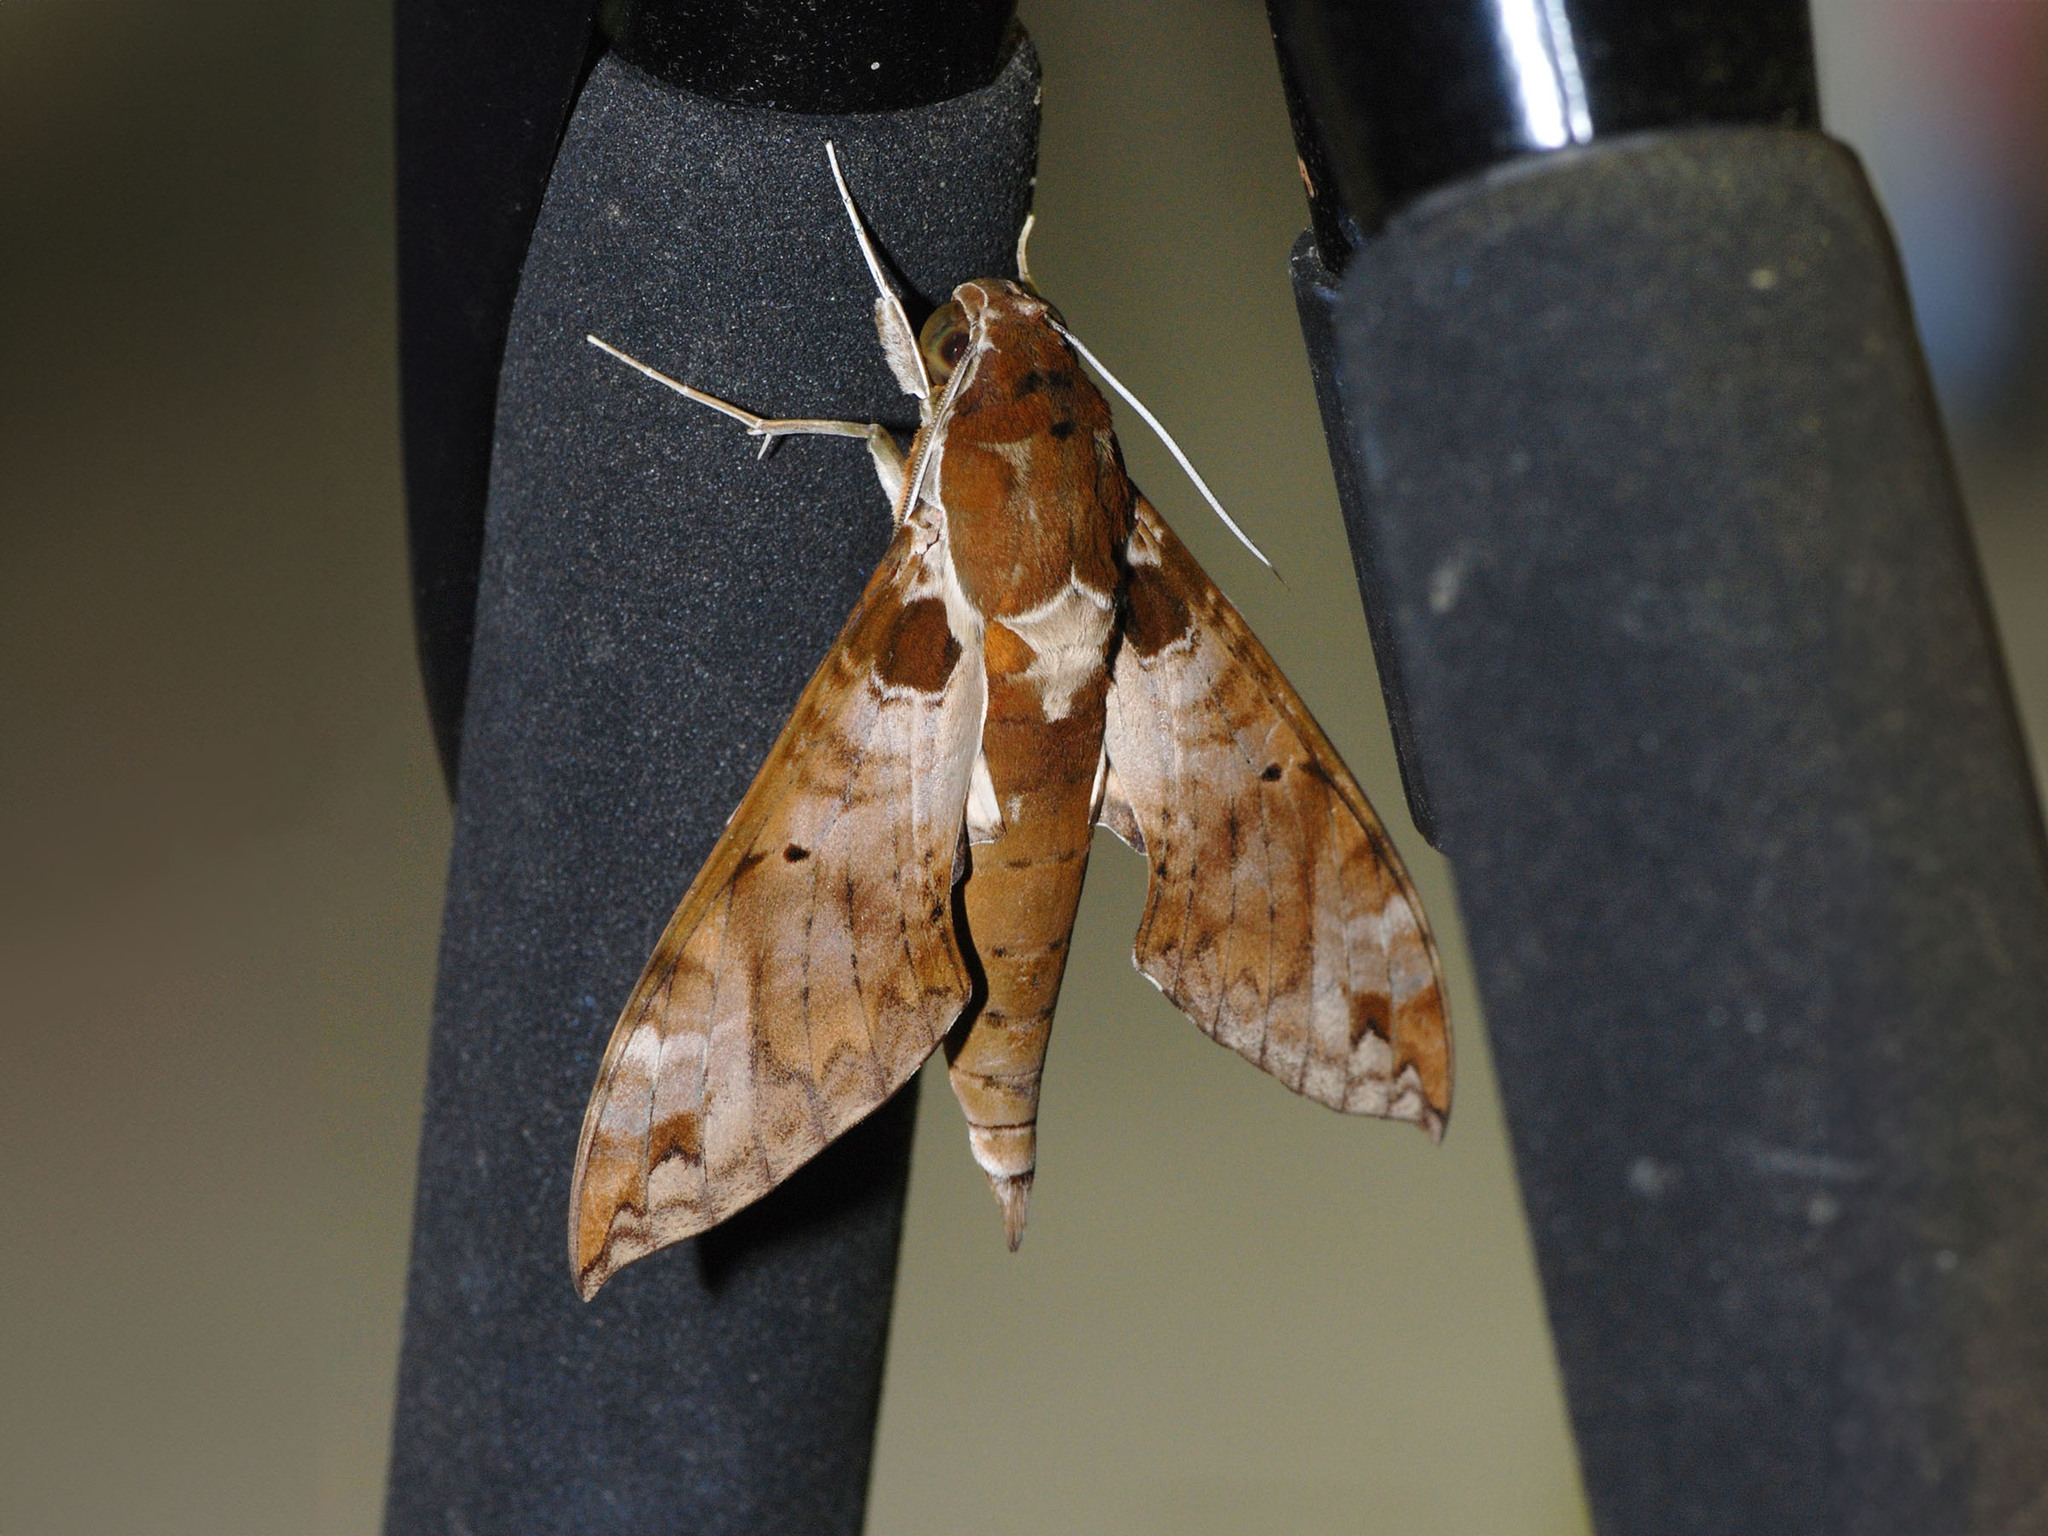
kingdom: Animalia
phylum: Arthropoda
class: Insecta
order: Lepidoptera
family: Sphingidae
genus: Cechenena
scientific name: Cechenena helops
